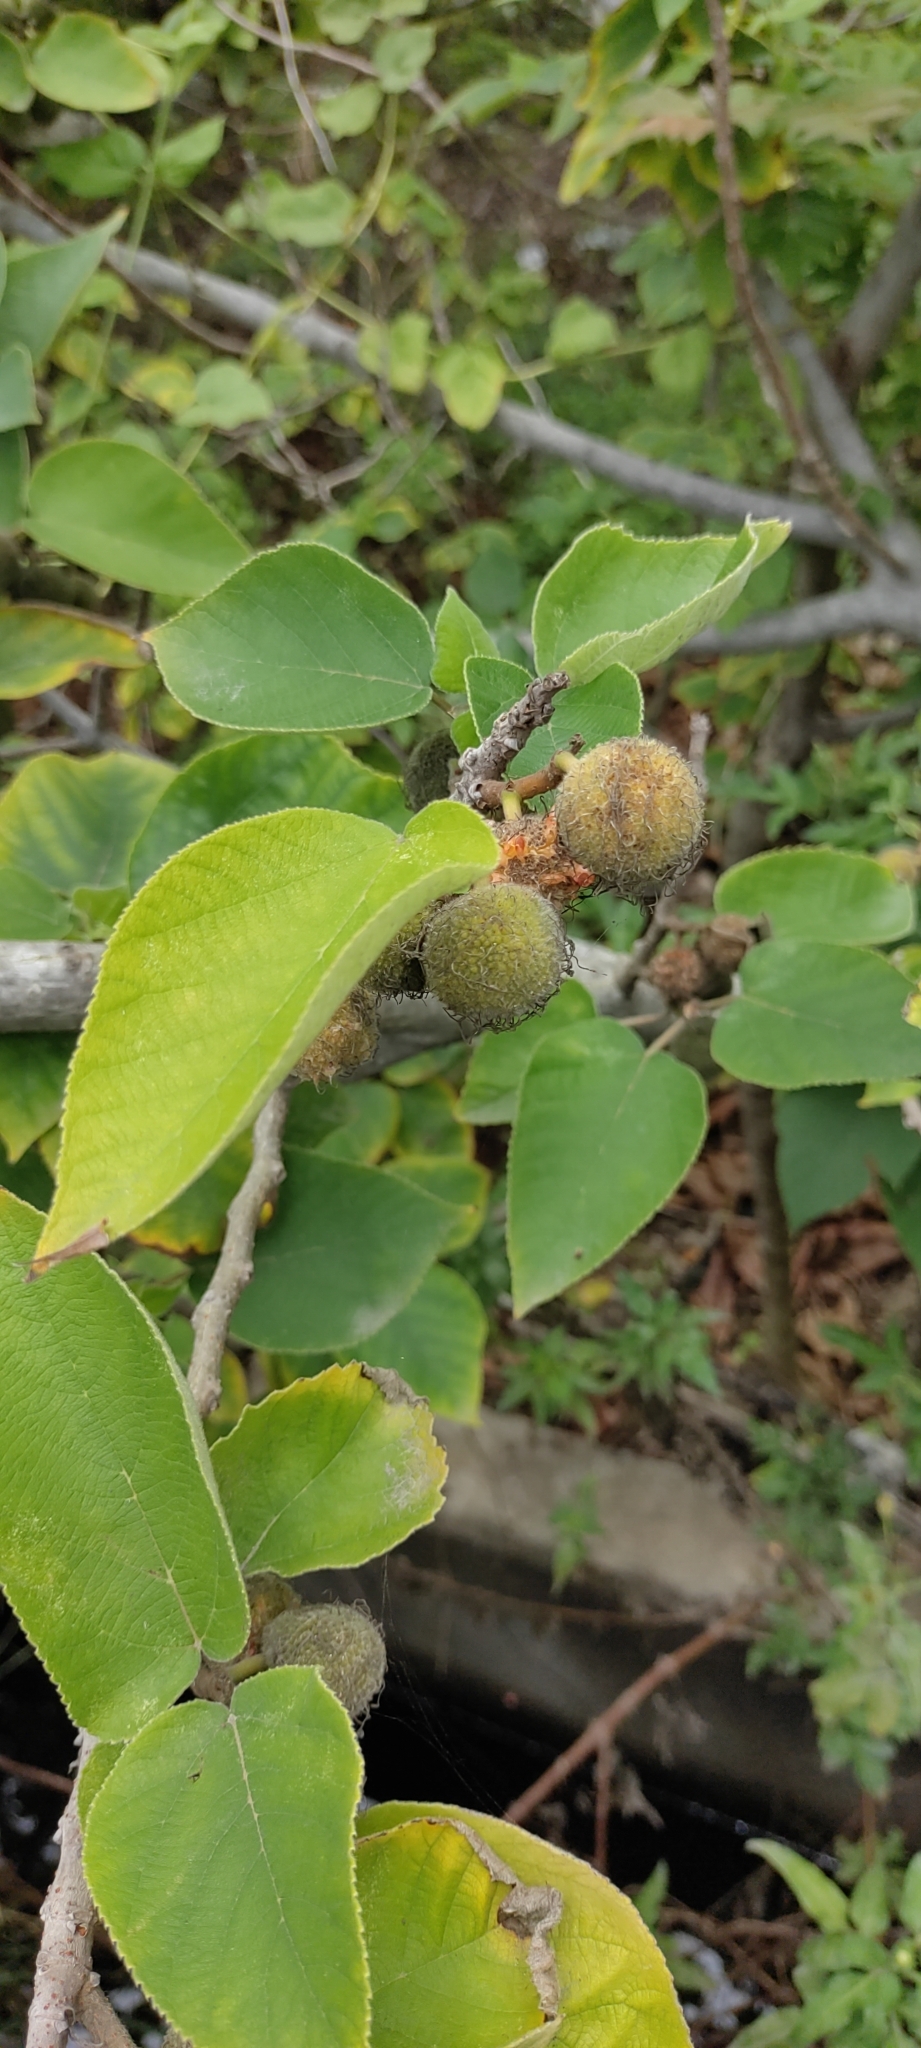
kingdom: Plantae
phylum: Tracheophyta
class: Magnoliopsida
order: Rosales
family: Moraceae
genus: Broussonetia
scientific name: Broussonetia papyrifera
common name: Paper mulberry
